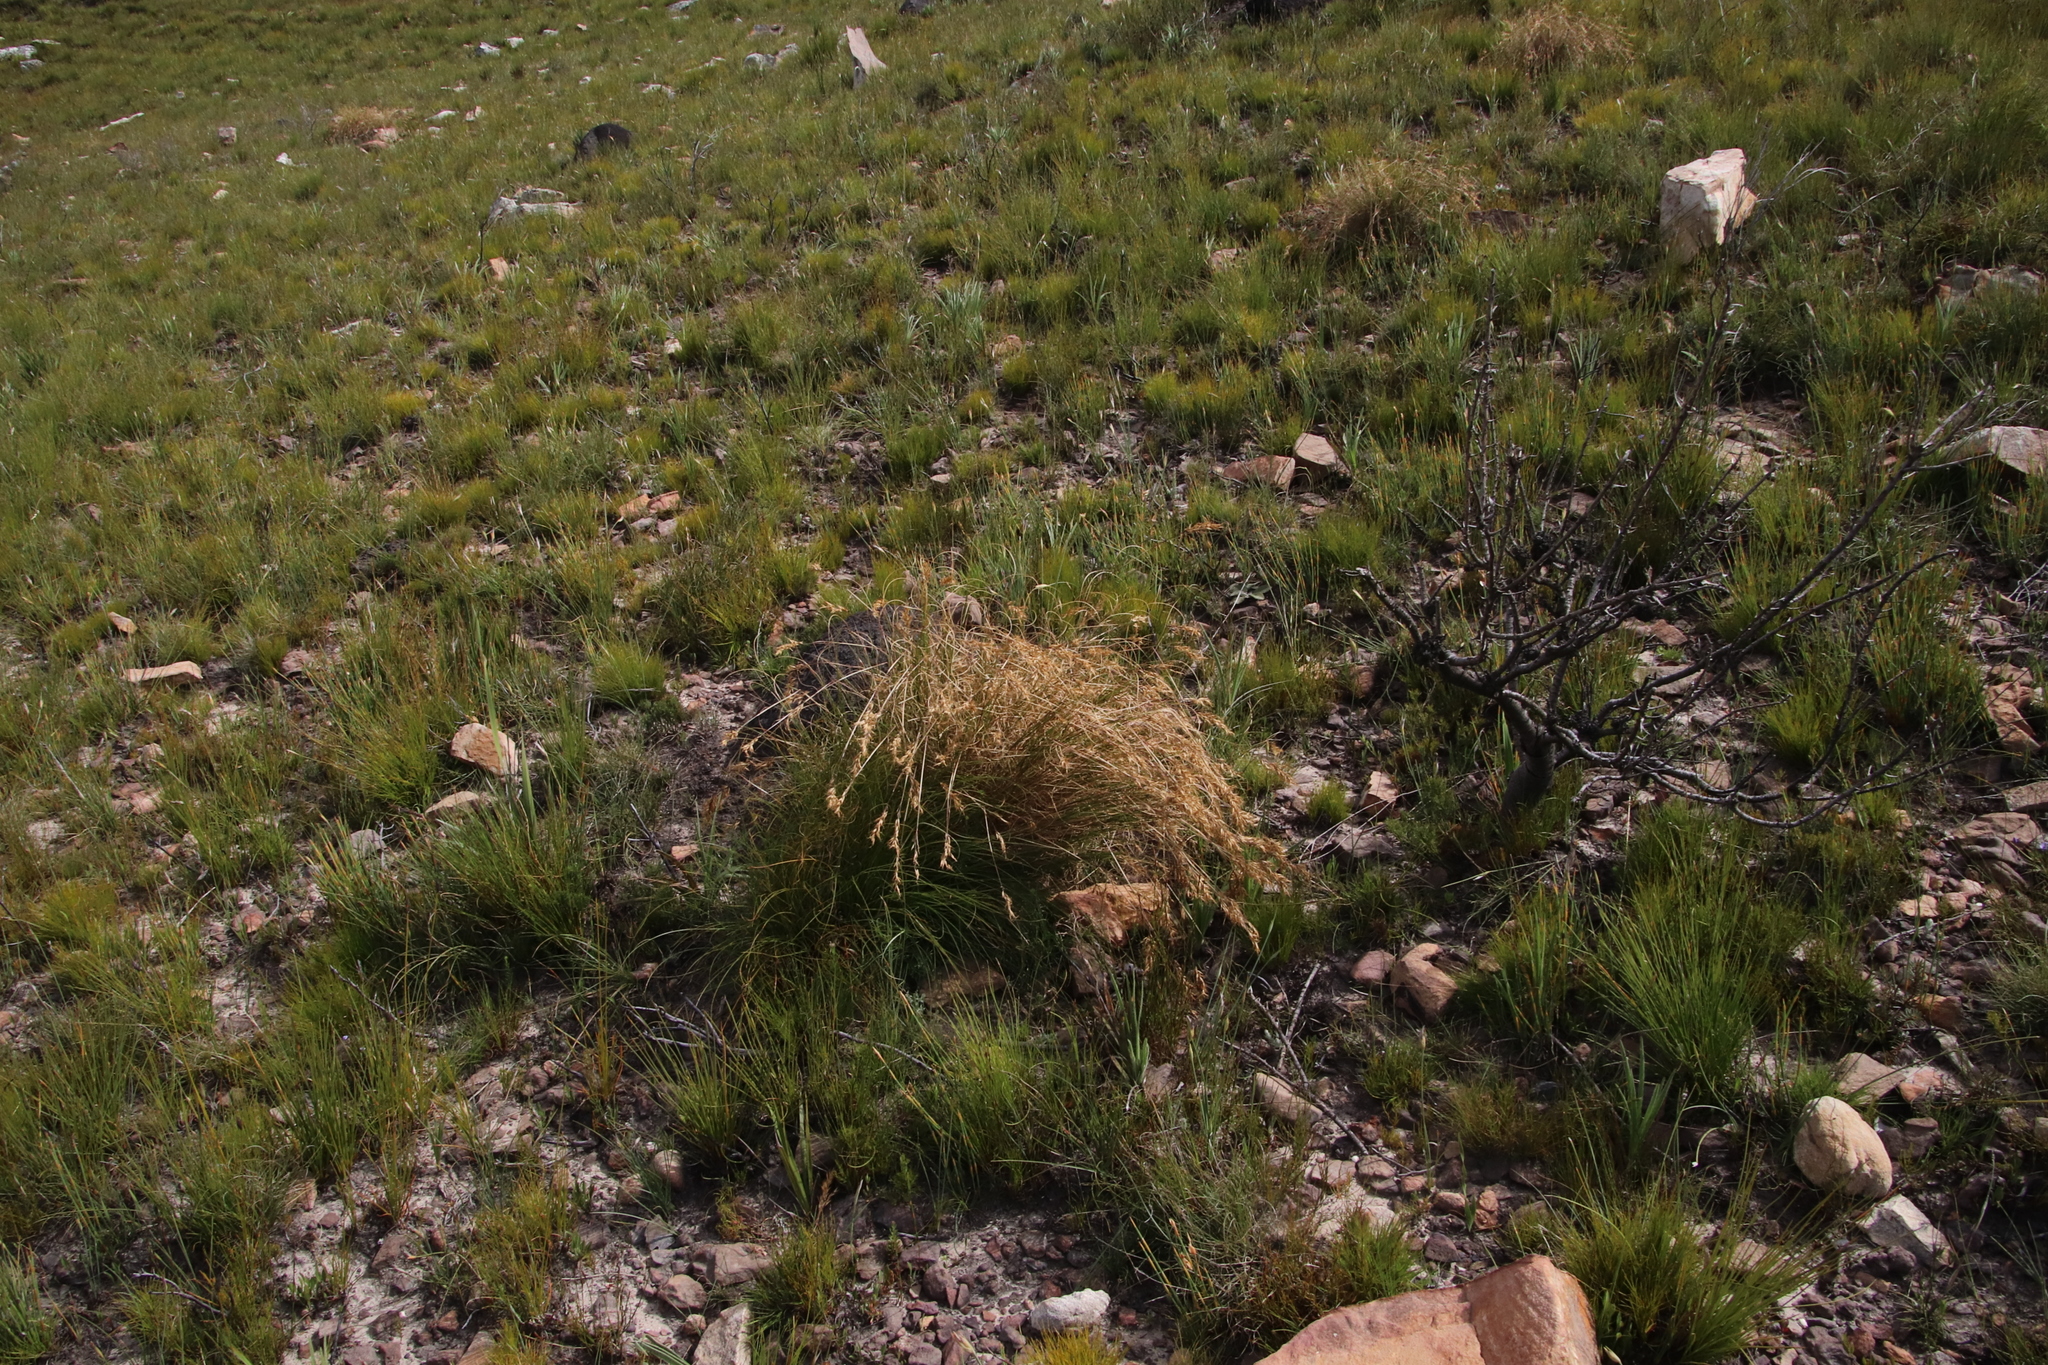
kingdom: Plantae
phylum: Tracheophyta
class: Liliopsida
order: Poales
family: Poaceae
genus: Pentameris
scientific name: Pentameris colorata
